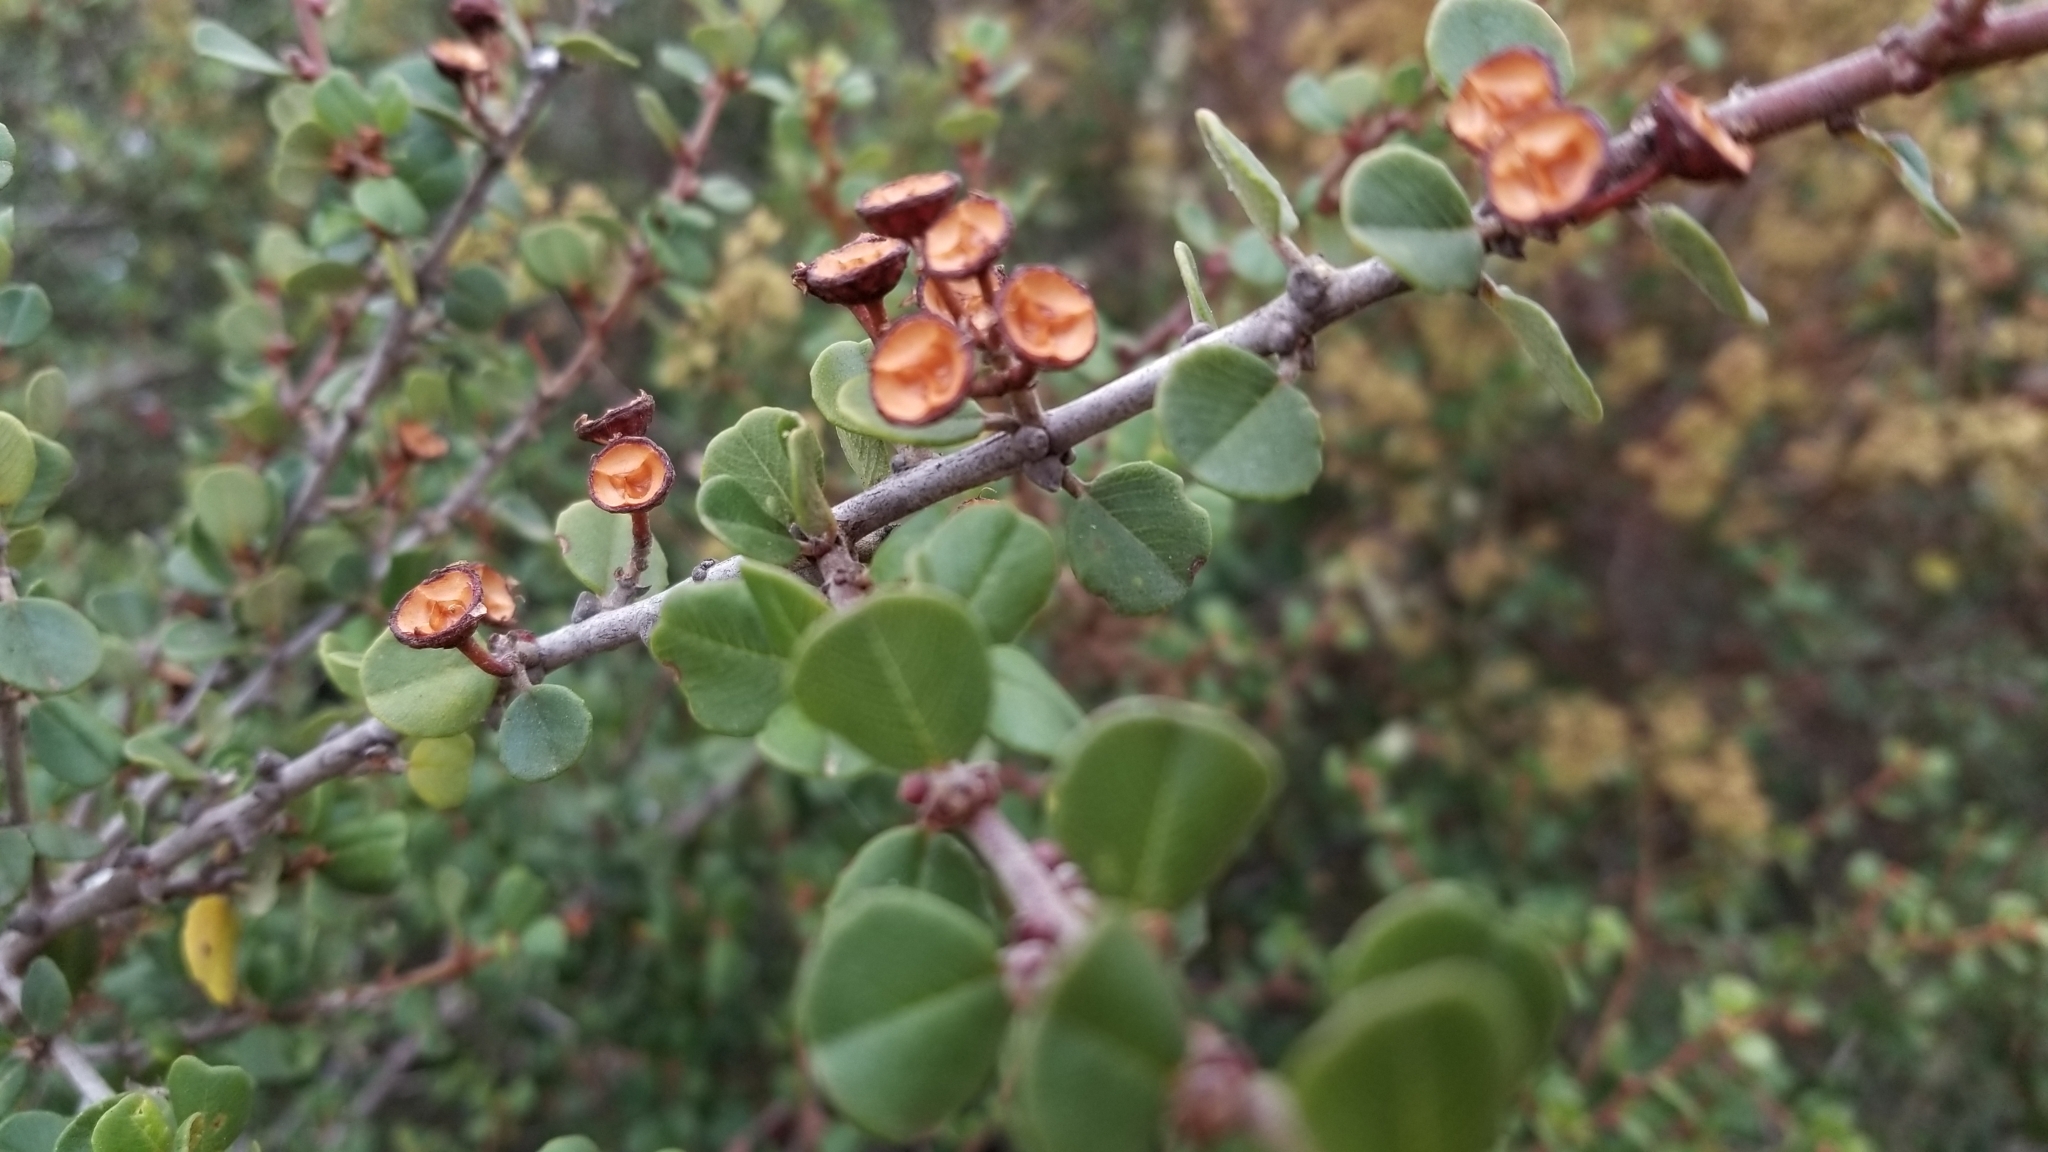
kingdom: Plantae
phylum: Tracheophyta
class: Magnoliopsida
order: Rosales
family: Rhamnaceae
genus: Ceanothus
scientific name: Ceanothus verrucosus
